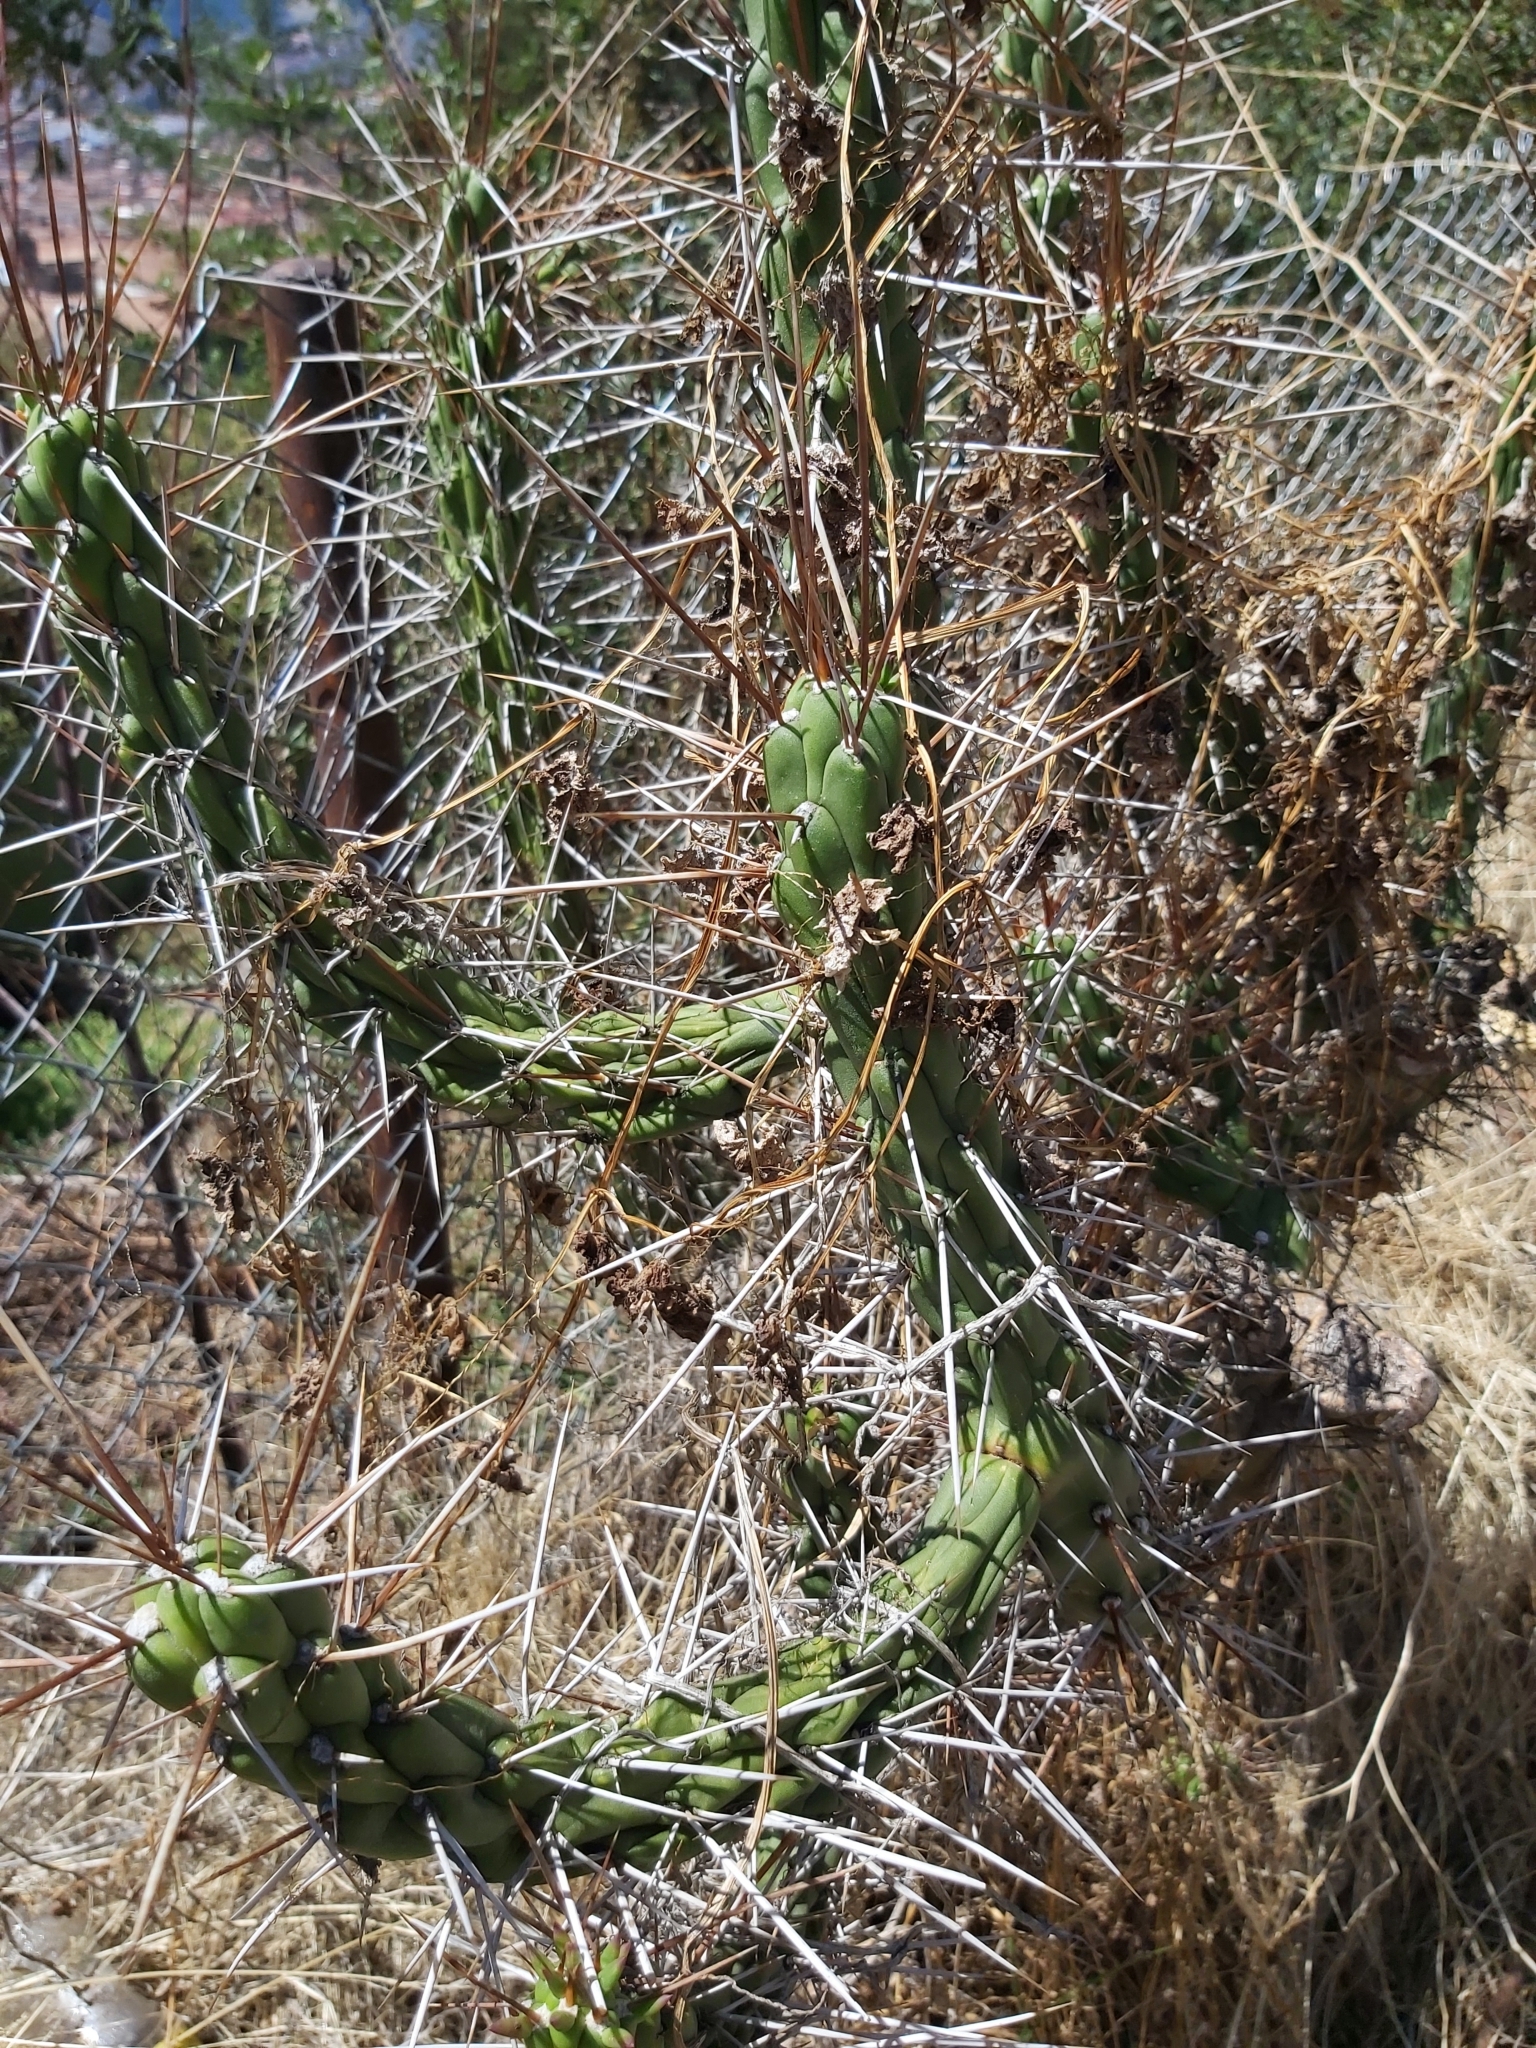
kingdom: Plantae
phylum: Tracheophyta
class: Magnoliopsida
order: Caryophyllales
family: Cactaceae
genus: Austrocylindropuntia
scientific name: Austrocylindropuntia subulata
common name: Eve's needle cactus
